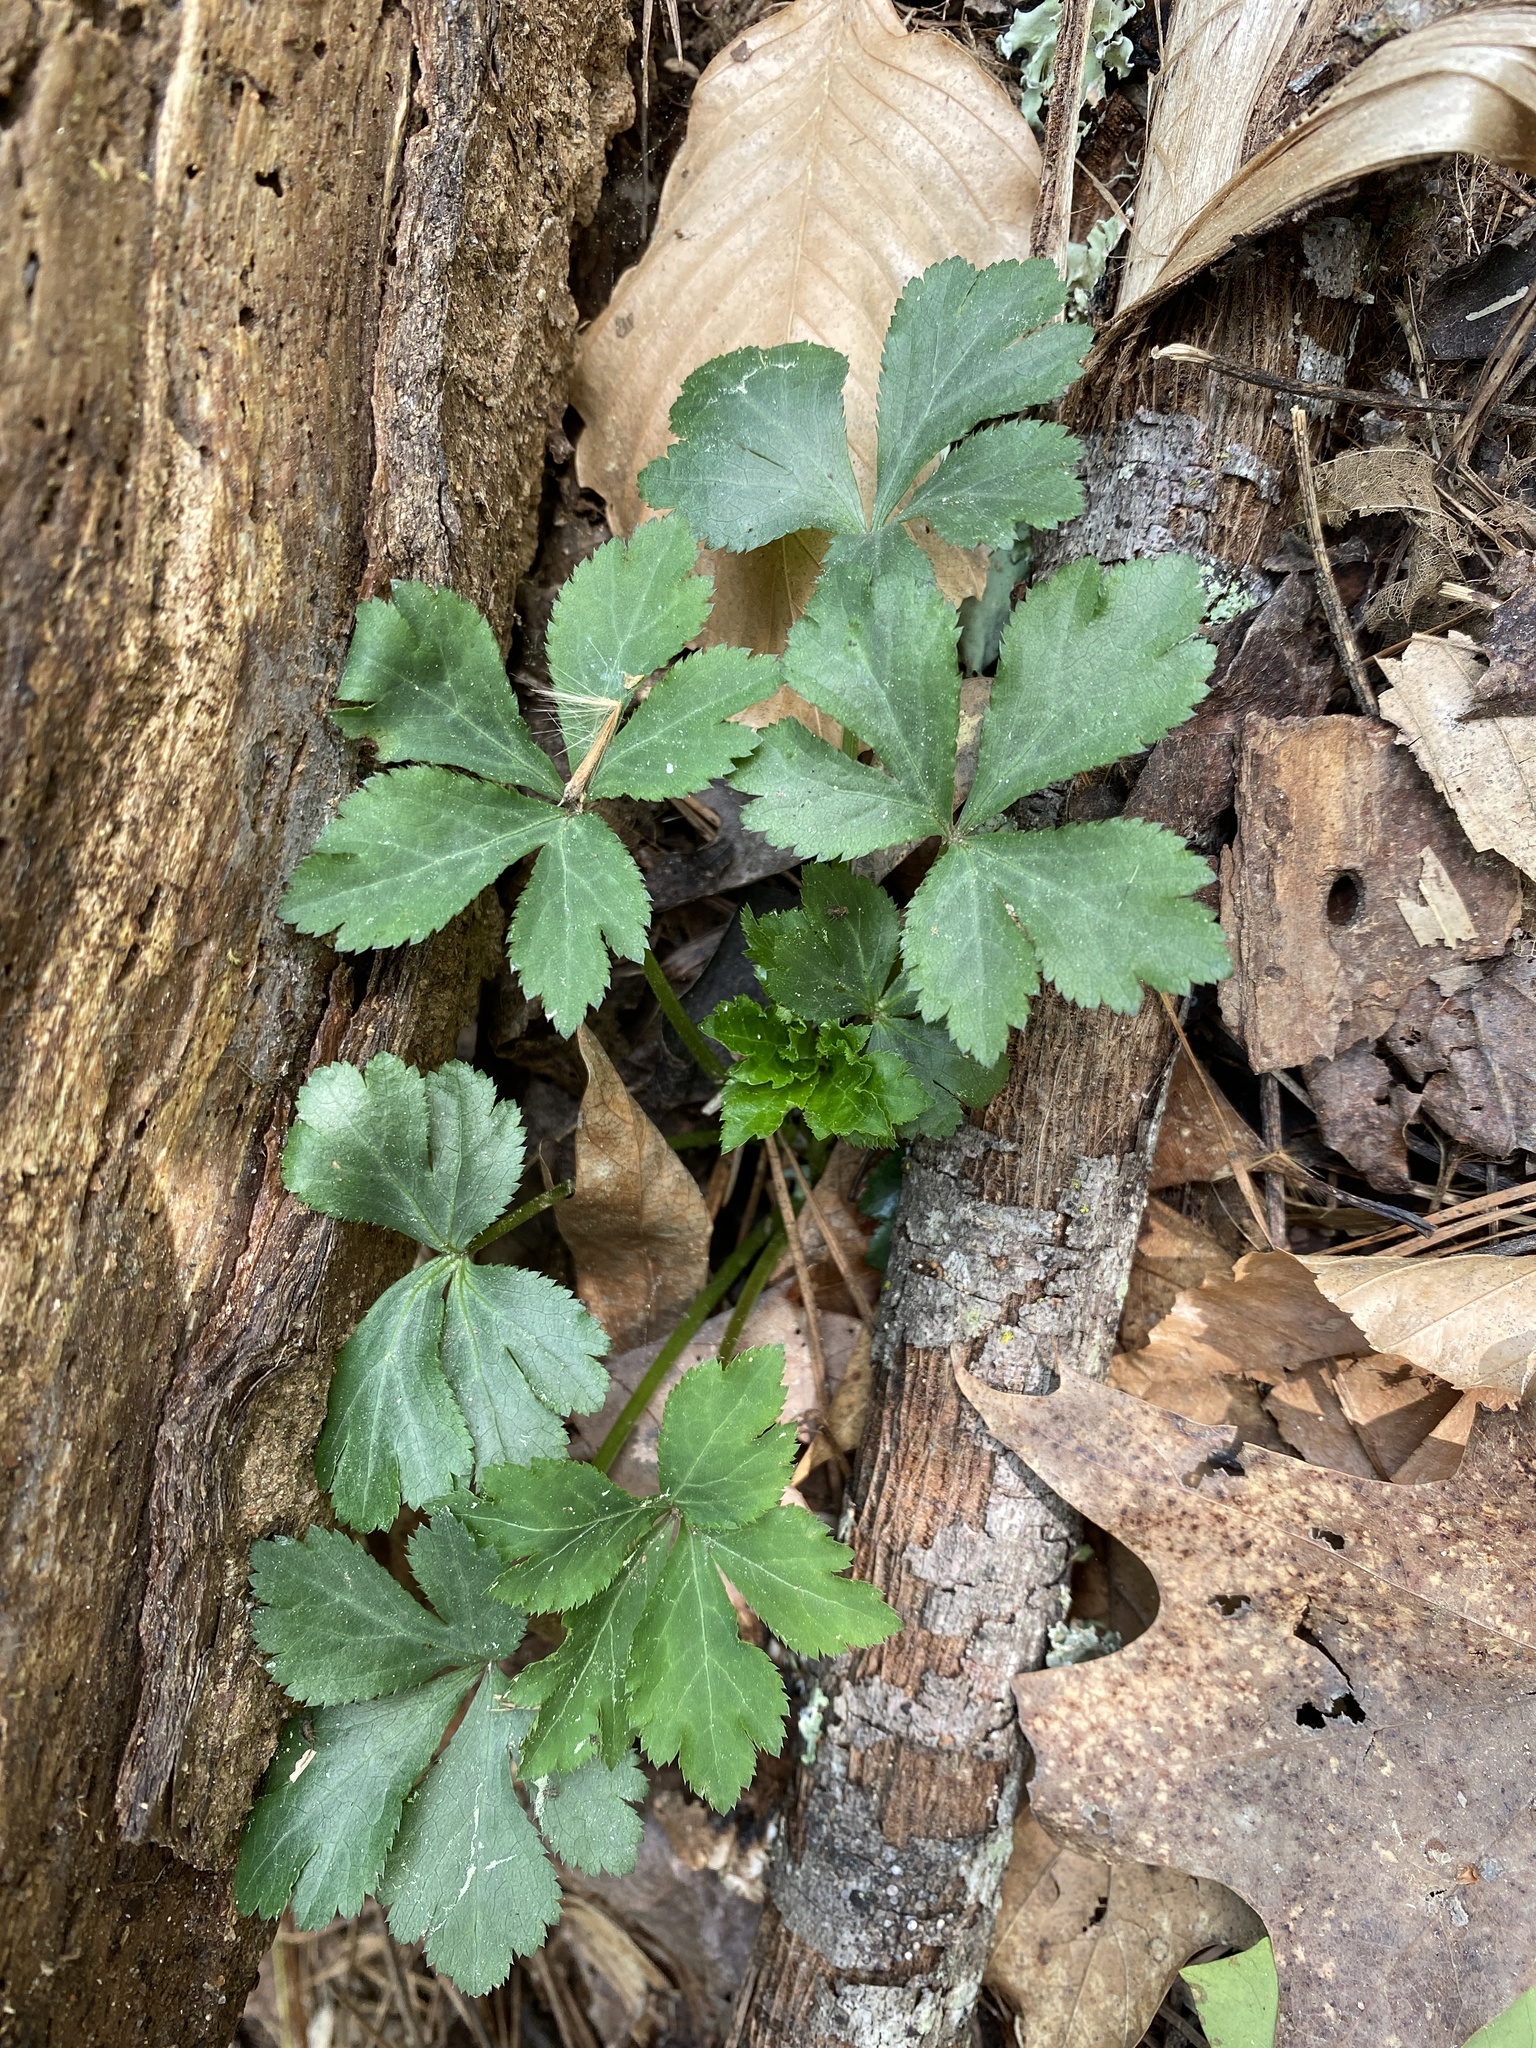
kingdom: Plantae
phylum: Tracheophyta
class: Magnoliopsida
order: Apiales
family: Apiaceae
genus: Sanicula
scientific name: Sanicula canadensis
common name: Canada sanicle
